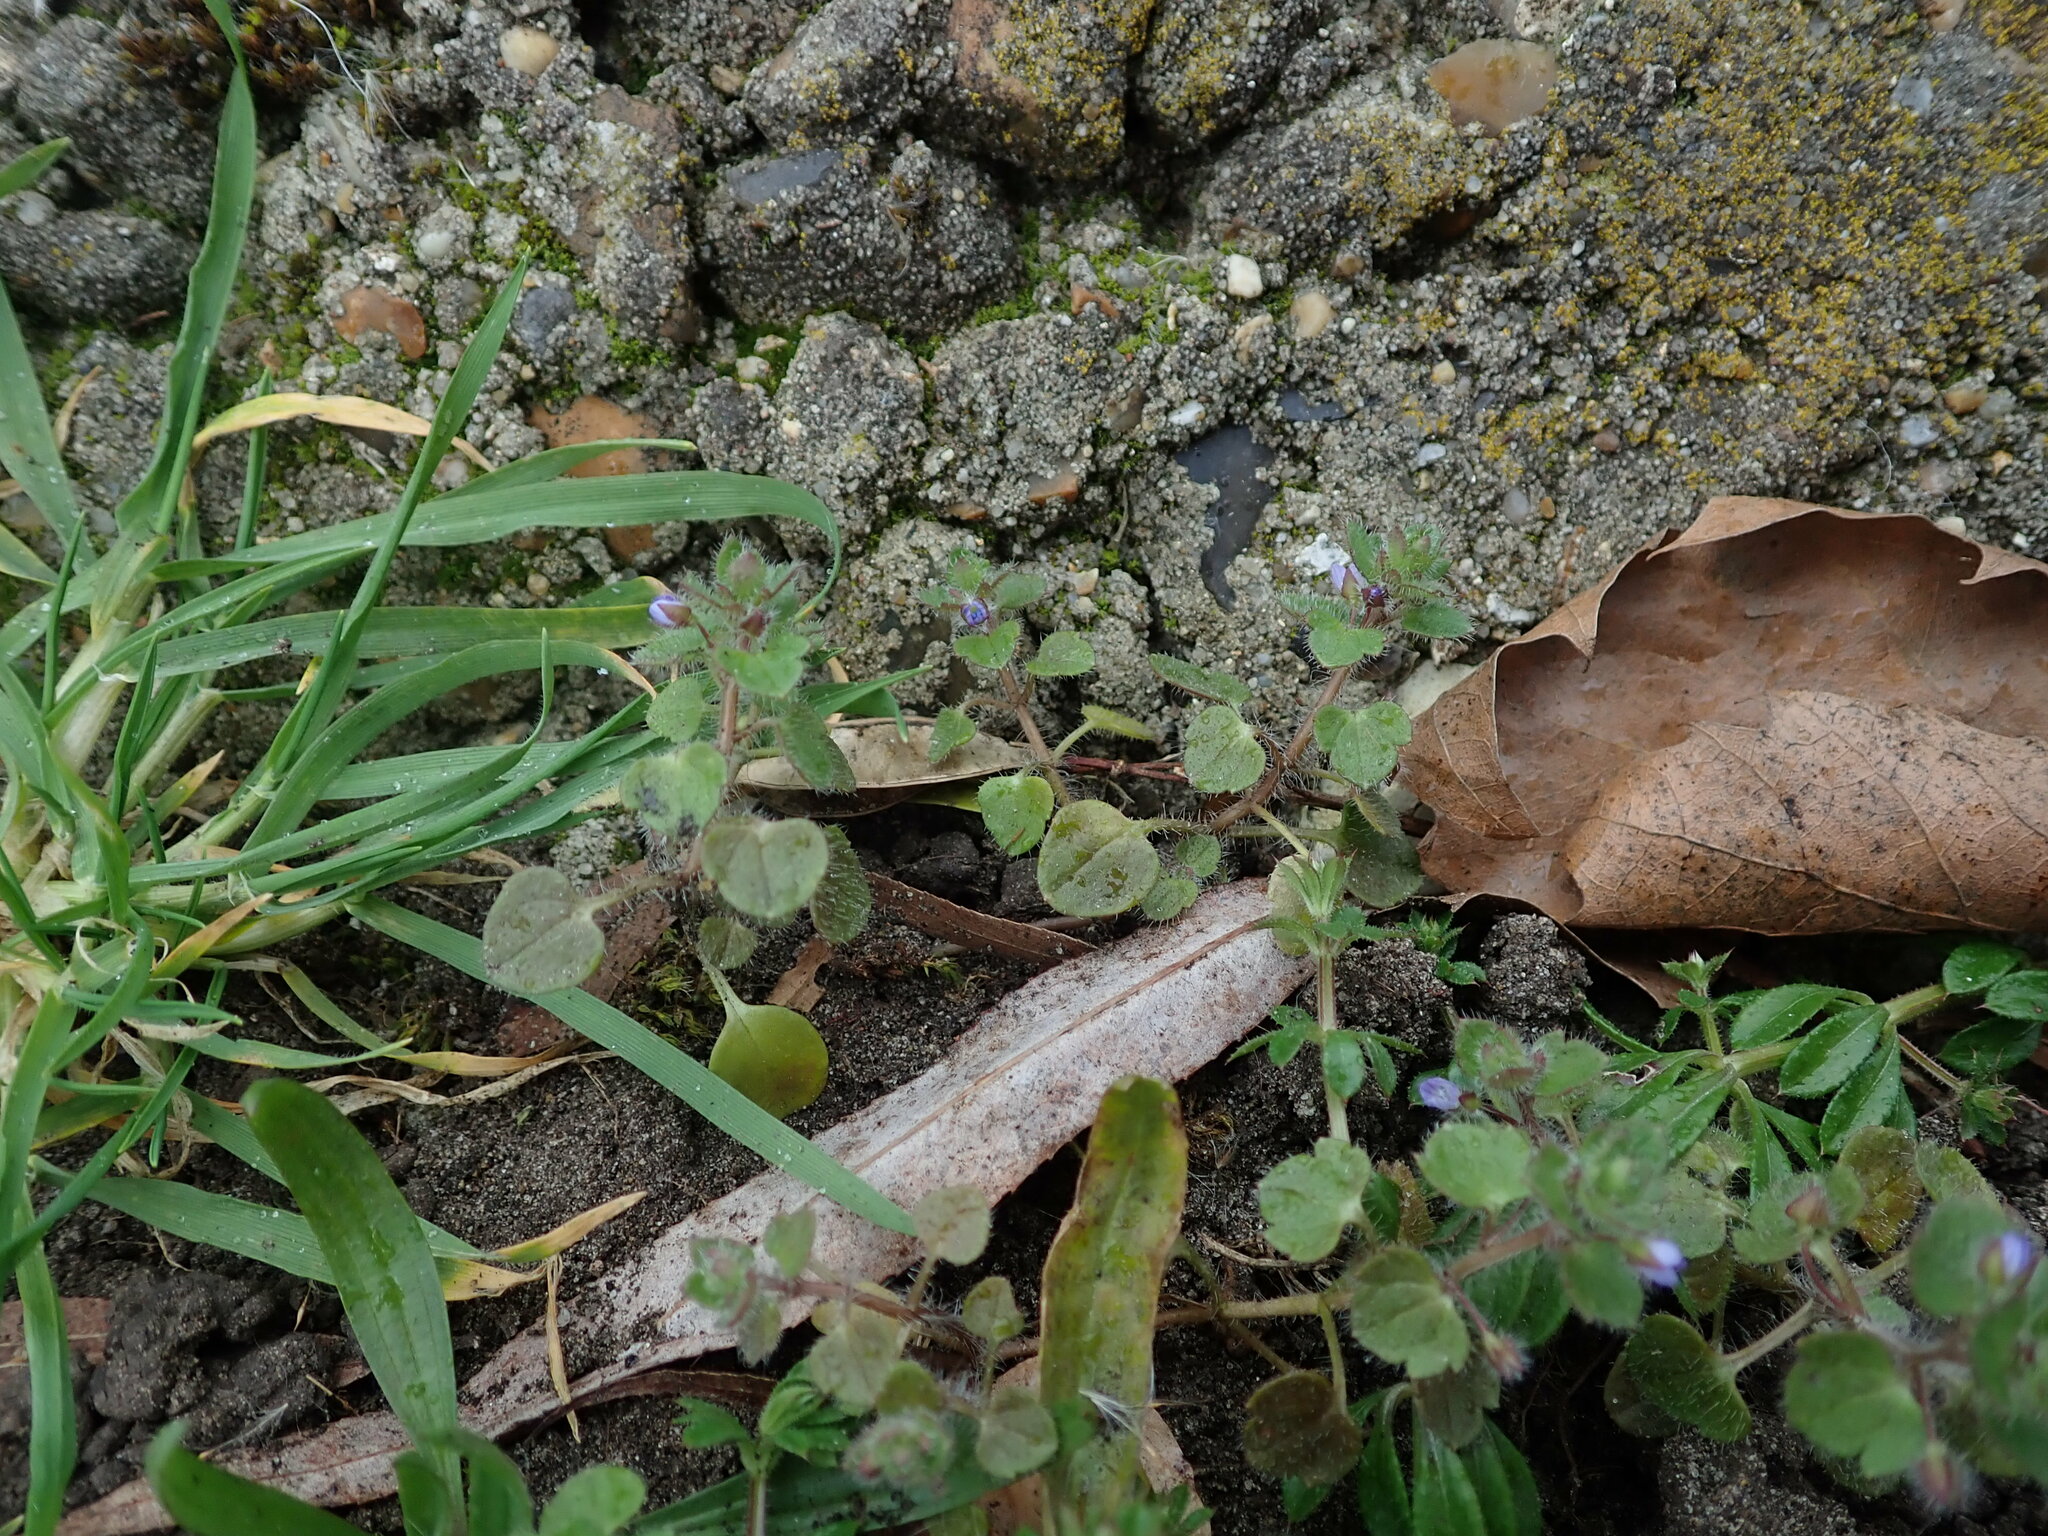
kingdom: Plantae
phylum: Tracheophyta
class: Magnoliopsida
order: Lamiales
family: Plantaginaceae
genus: Veronica
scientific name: Veronica hederifolia
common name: Ivy-leaved speedwell
